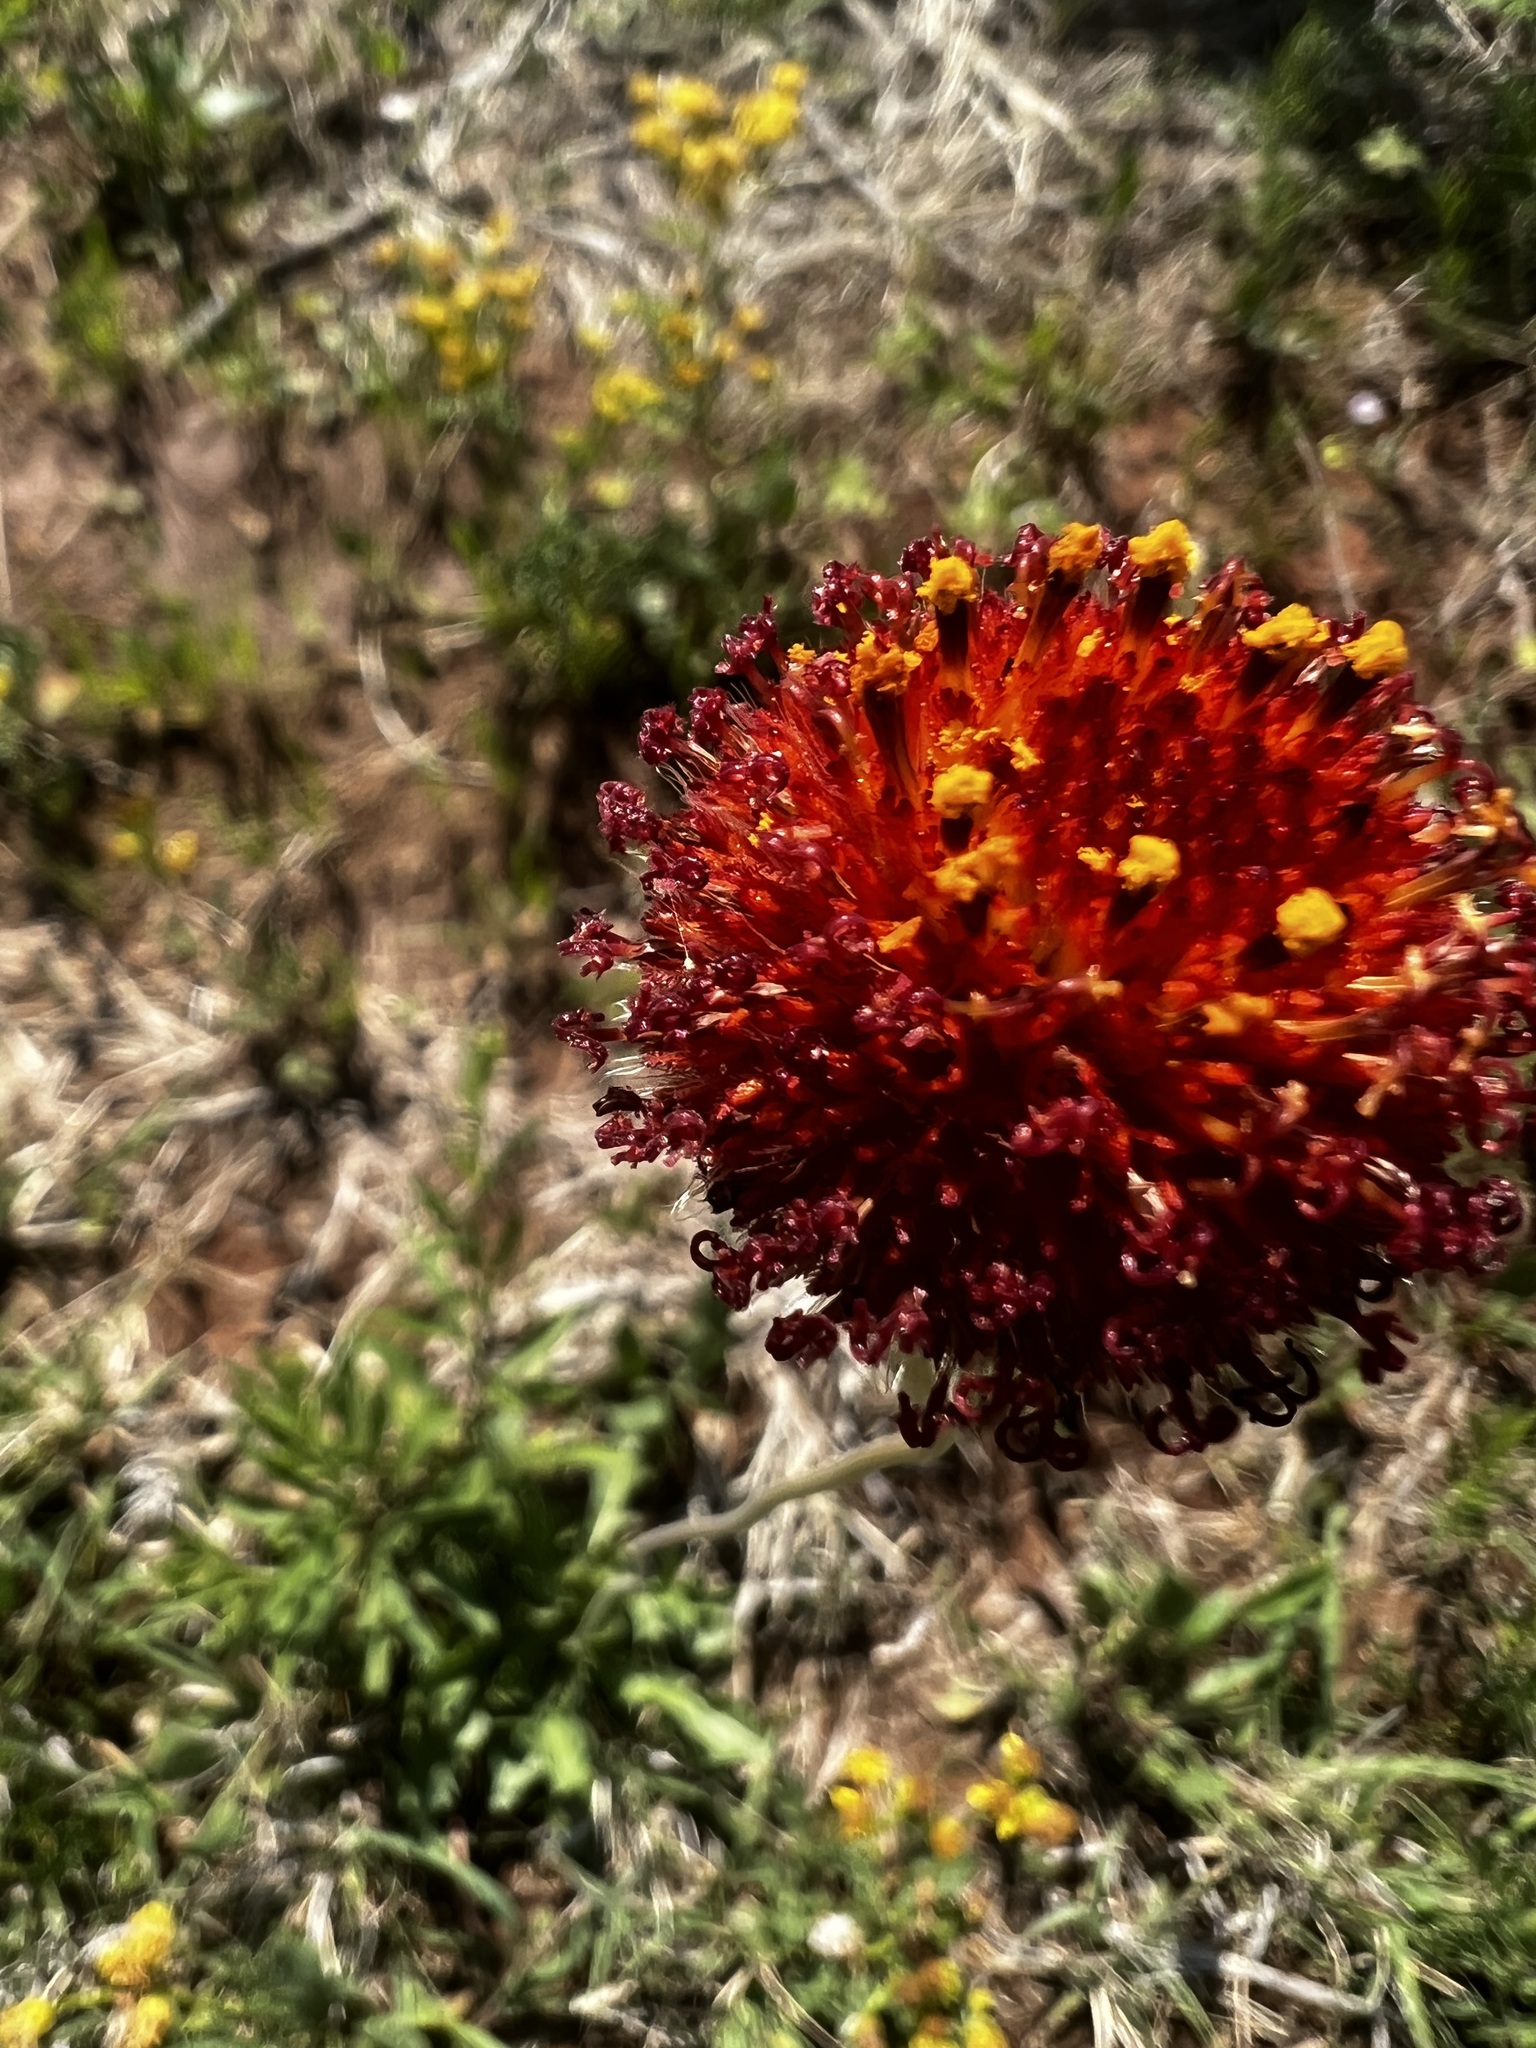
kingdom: Plantae
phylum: Tracheophyta
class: Magnoliopsida
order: Asterales
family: Asteraceae
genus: Gaillardia
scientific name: Gaillardia suavis
